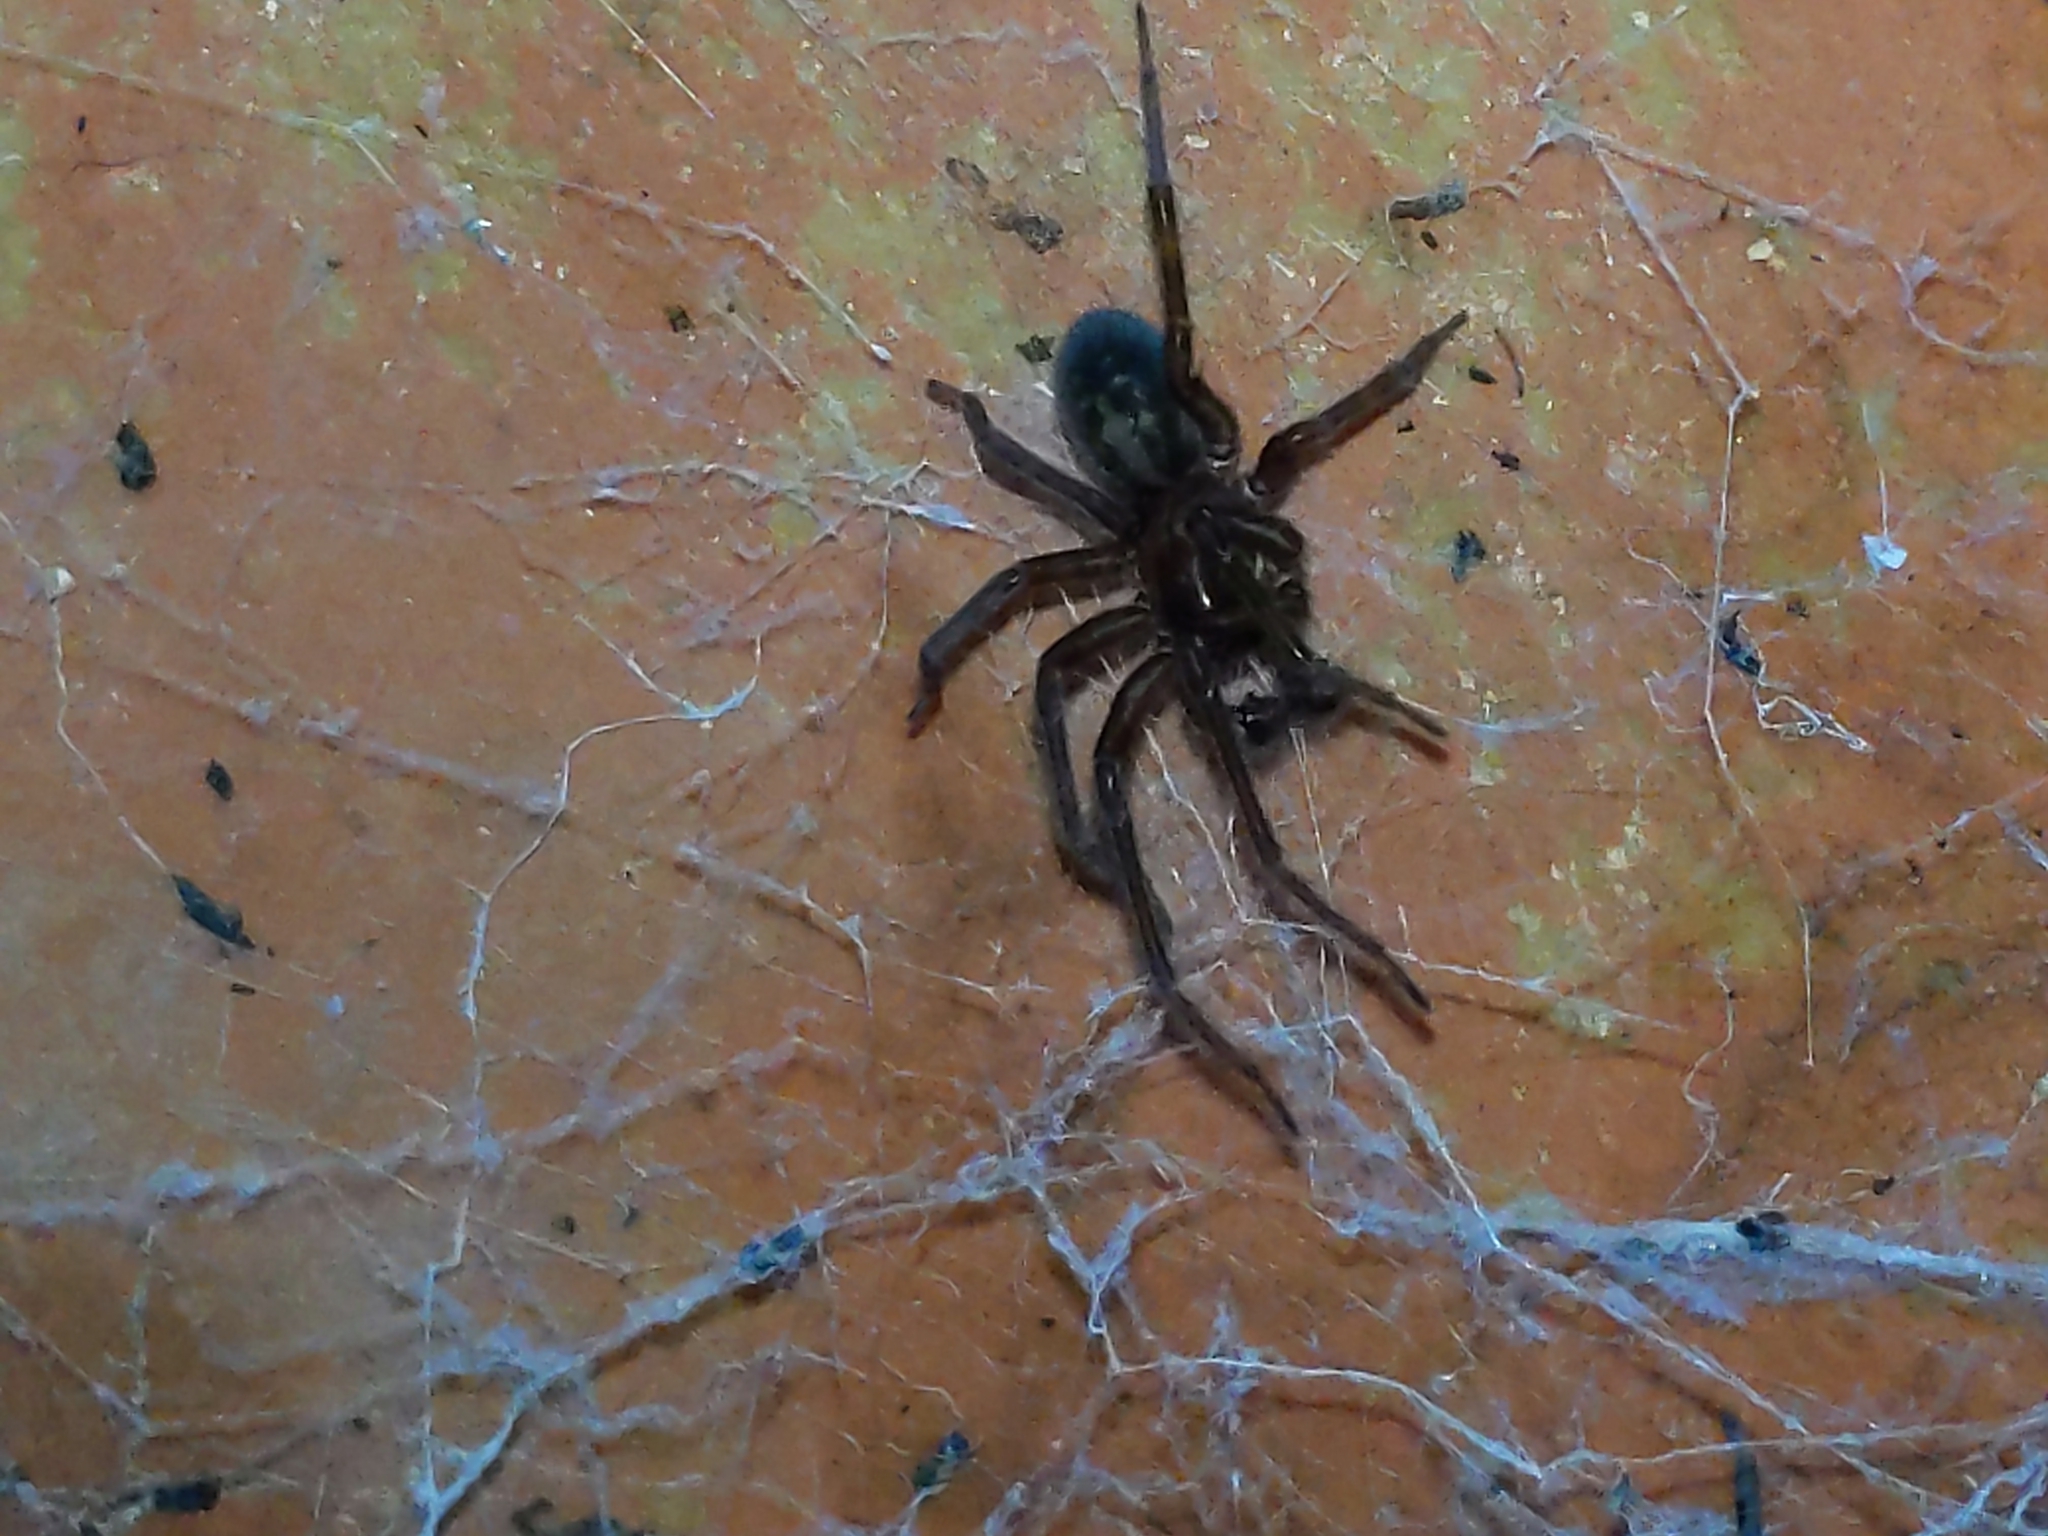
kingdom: Animalia
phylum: Arthropoda
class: Arachnida
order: Araneae
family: Amaurobiidae
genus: Amaurobius
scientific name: Amaurobius ferox
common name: Black laceweaver
